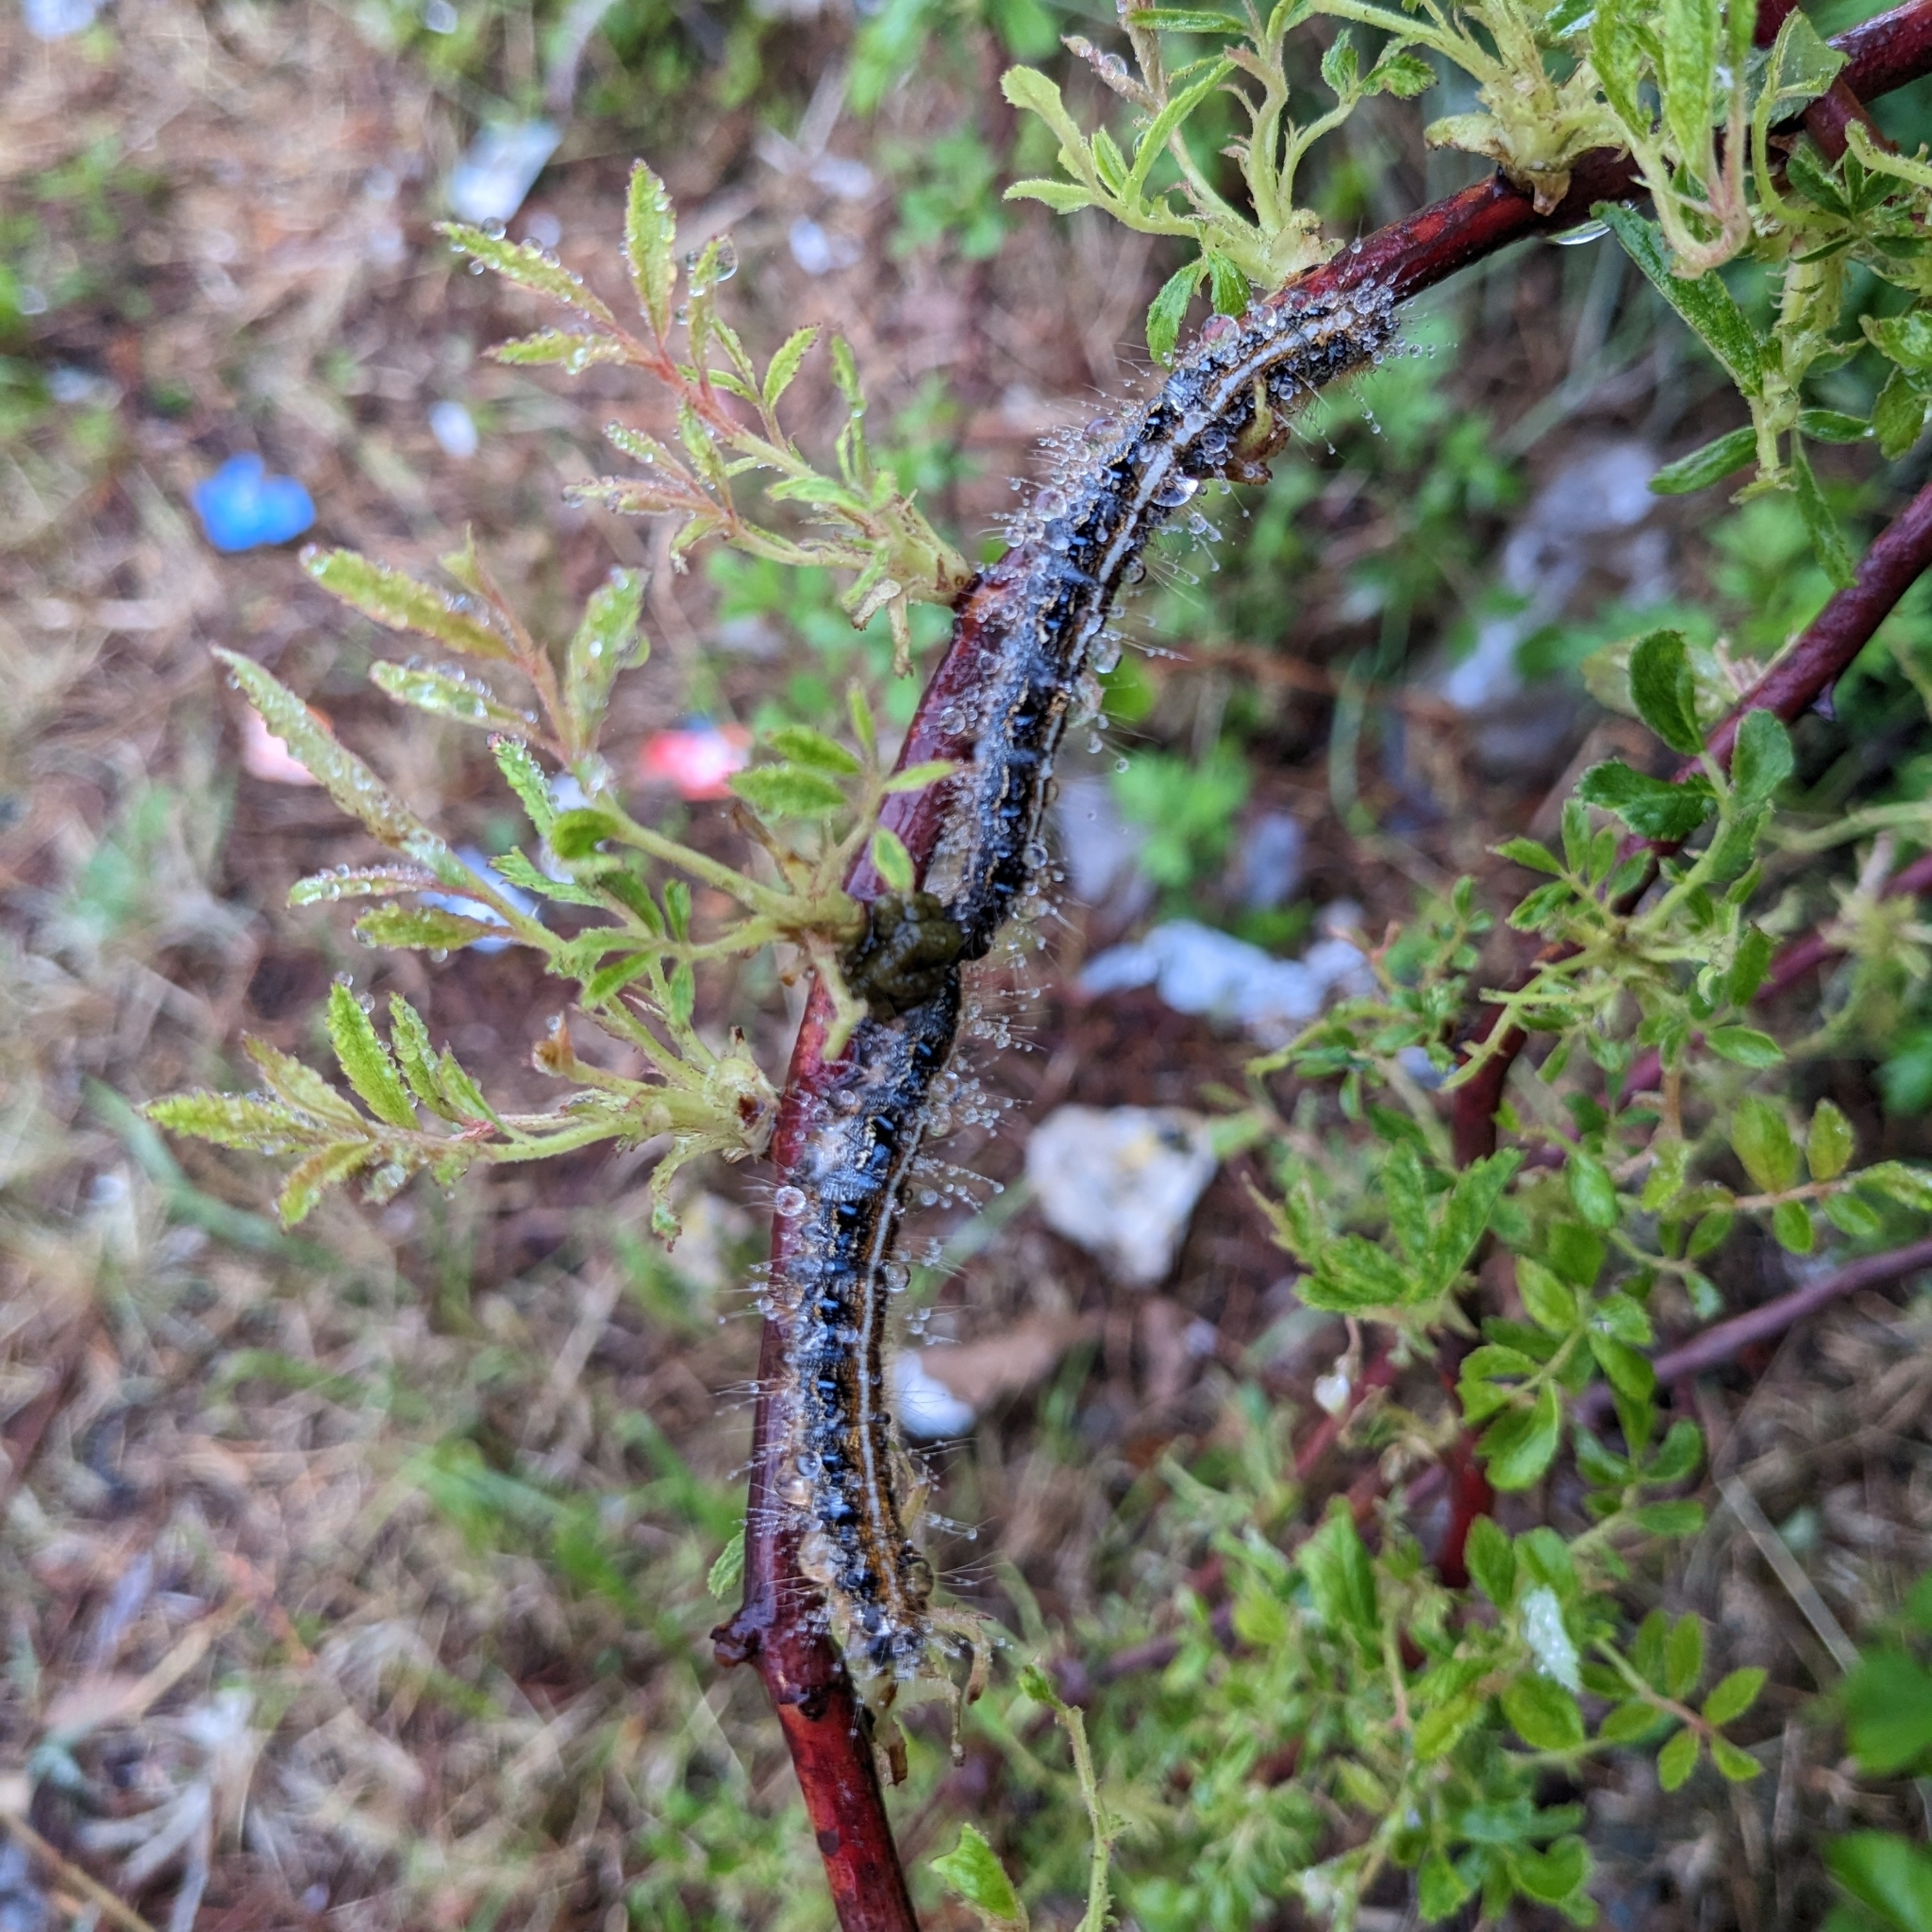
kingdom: Animalia
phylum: Arthropoda
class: Insecta
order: Lepidoptera
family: Lasiocampidae
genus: Malacosoma
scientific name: Malacosoma americana
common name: Eastern tent caterpillar moth
